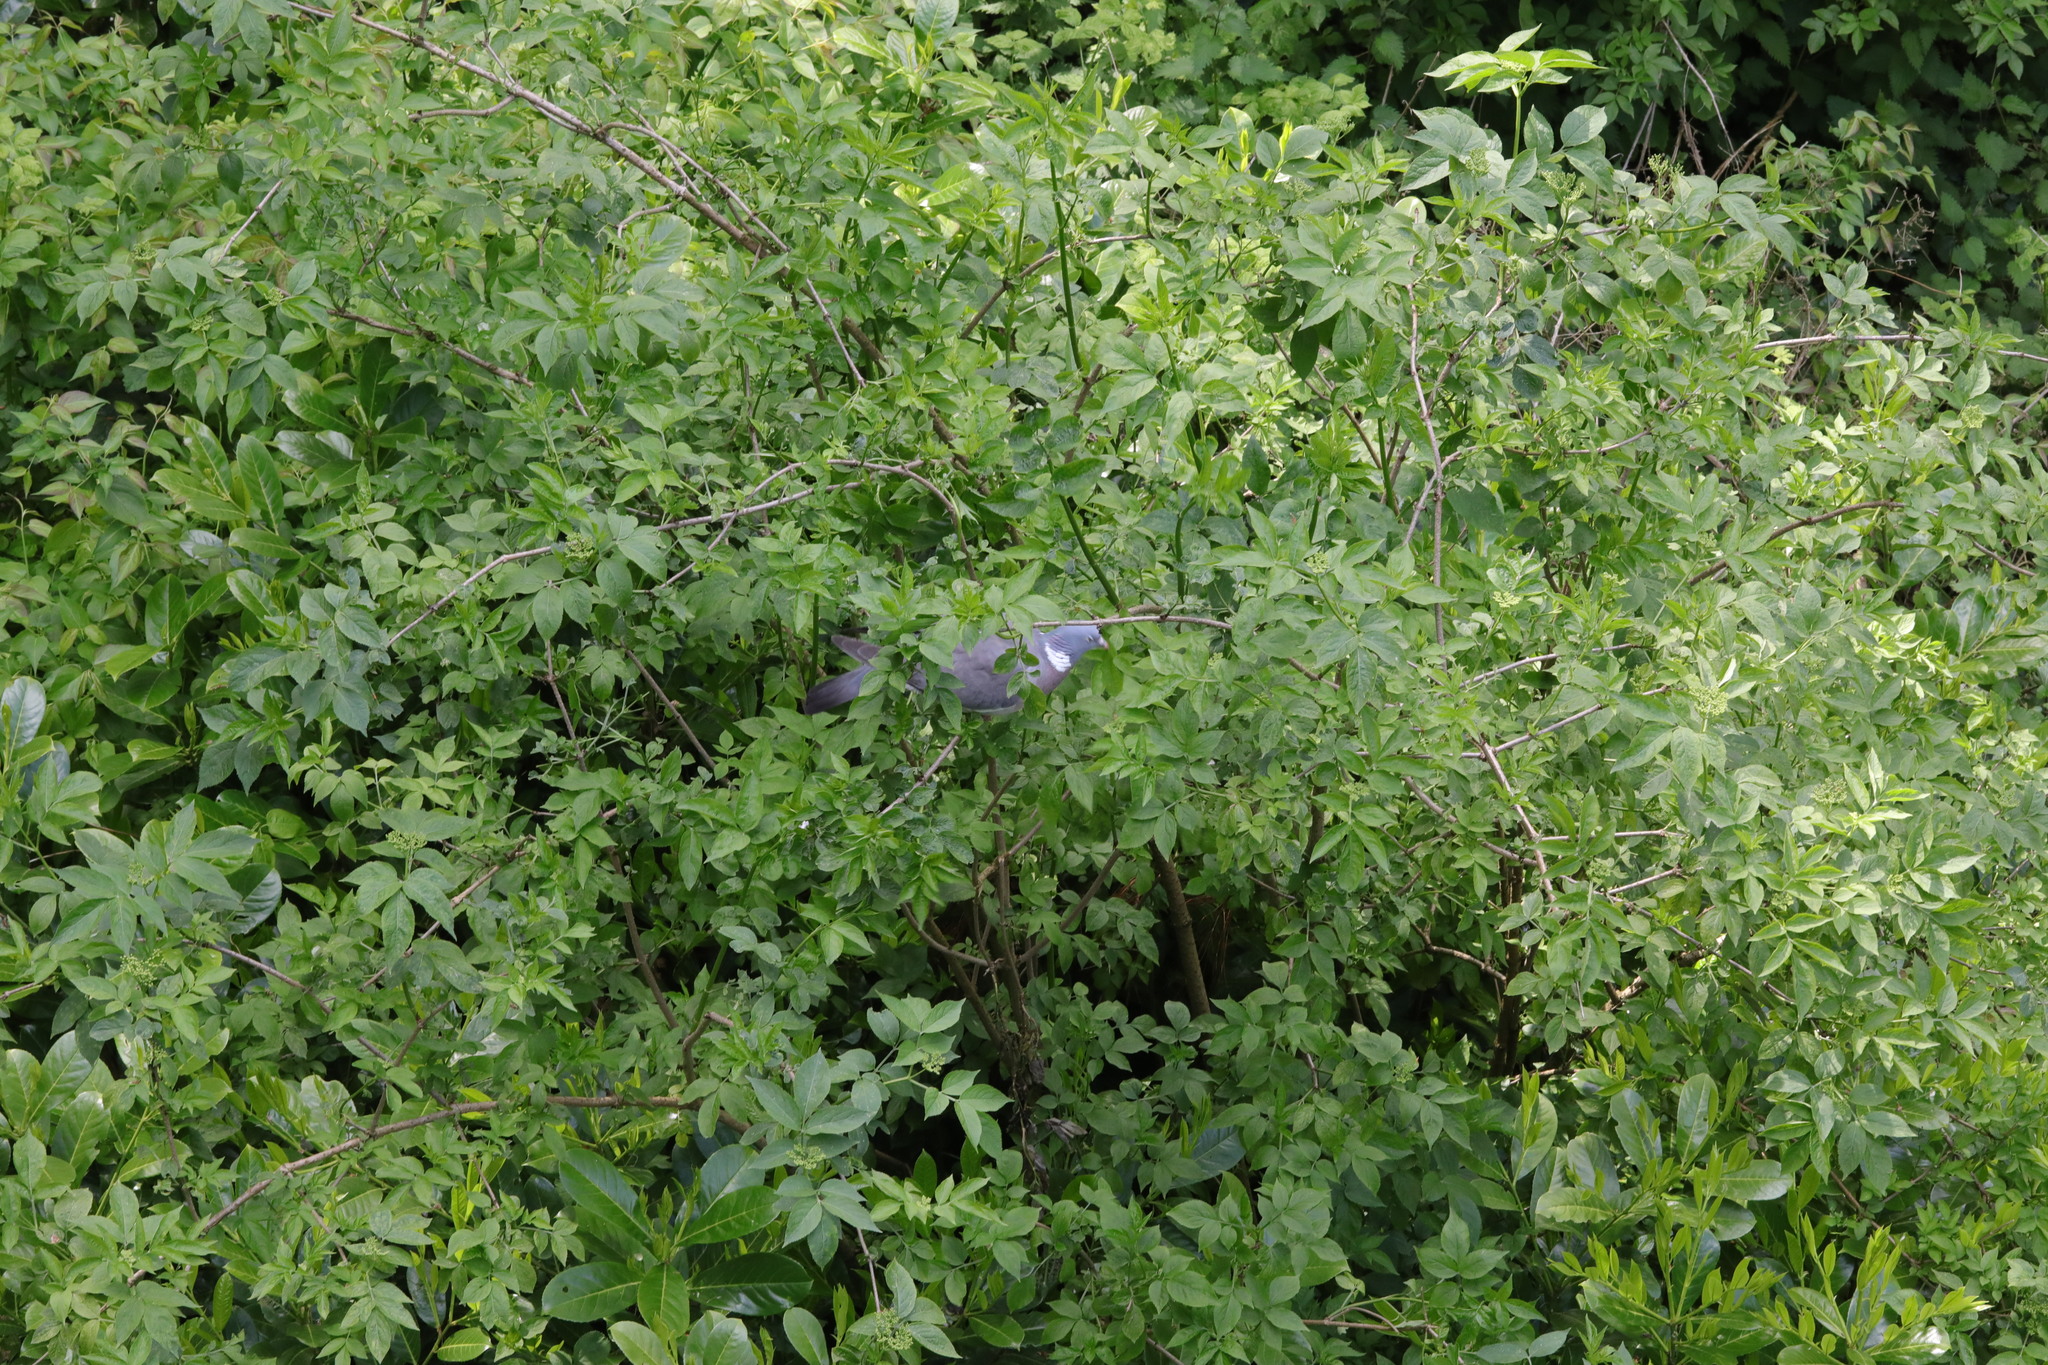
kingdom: Animalia
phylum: Chordata
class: Aves
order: Columbiformes
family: Columbidae
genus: Columba
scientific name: Columba palumbus
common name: Common wood pigeon
